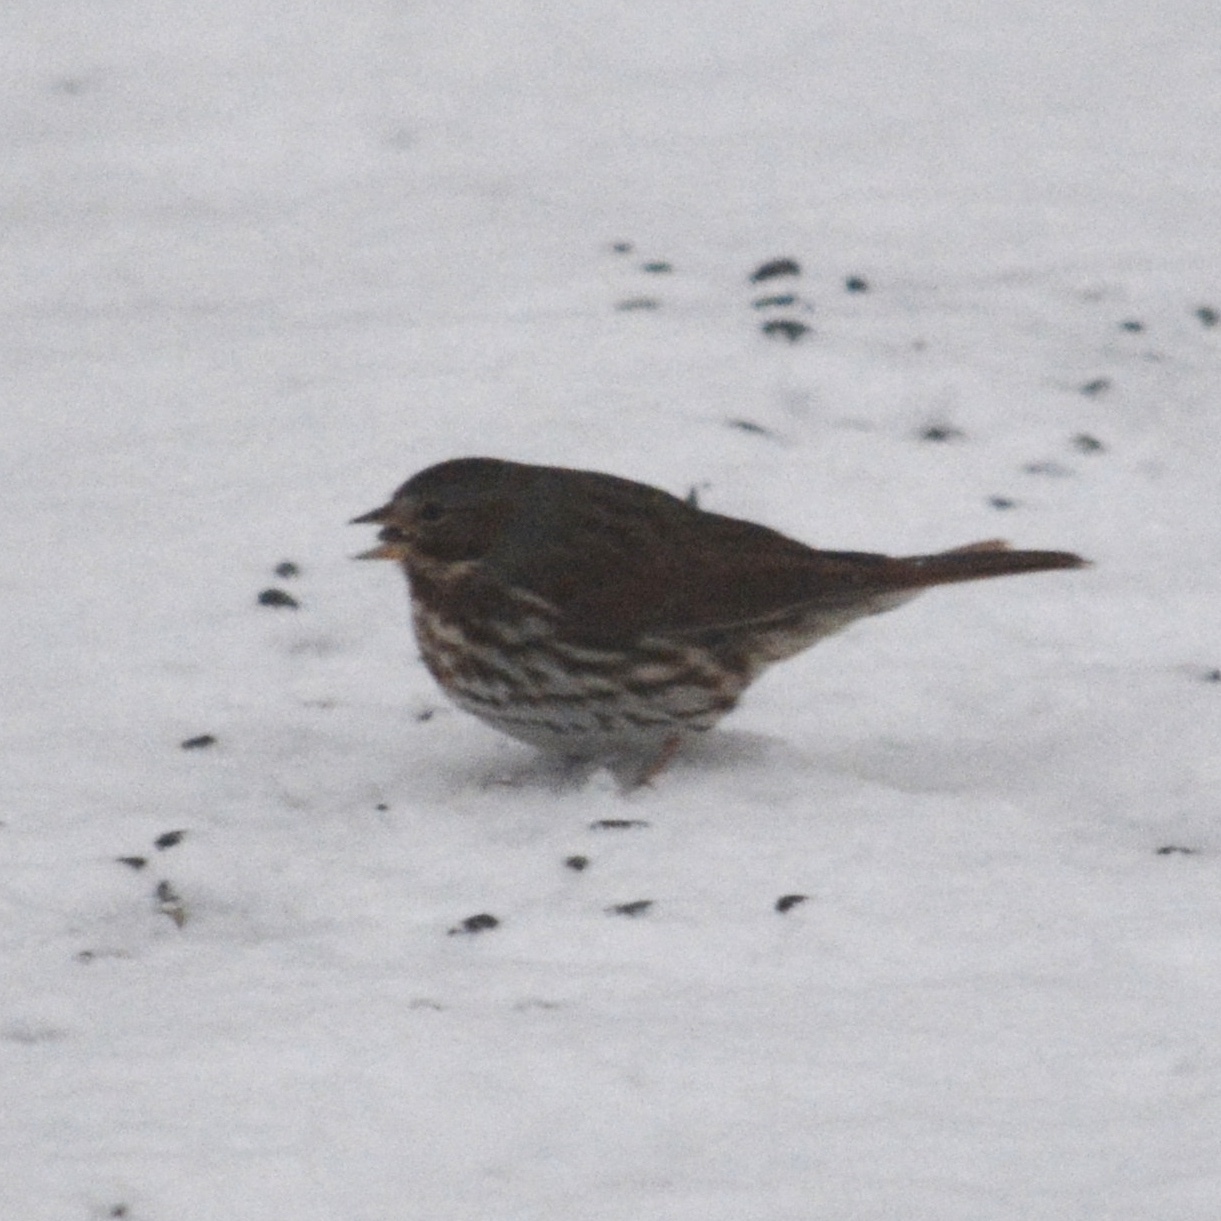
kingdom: Animalia
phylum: Chordata
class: Aves
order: Passeriformes
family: Passerellidae
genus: Passerella
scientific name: Passerella iliaca
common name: Fox sparrow
